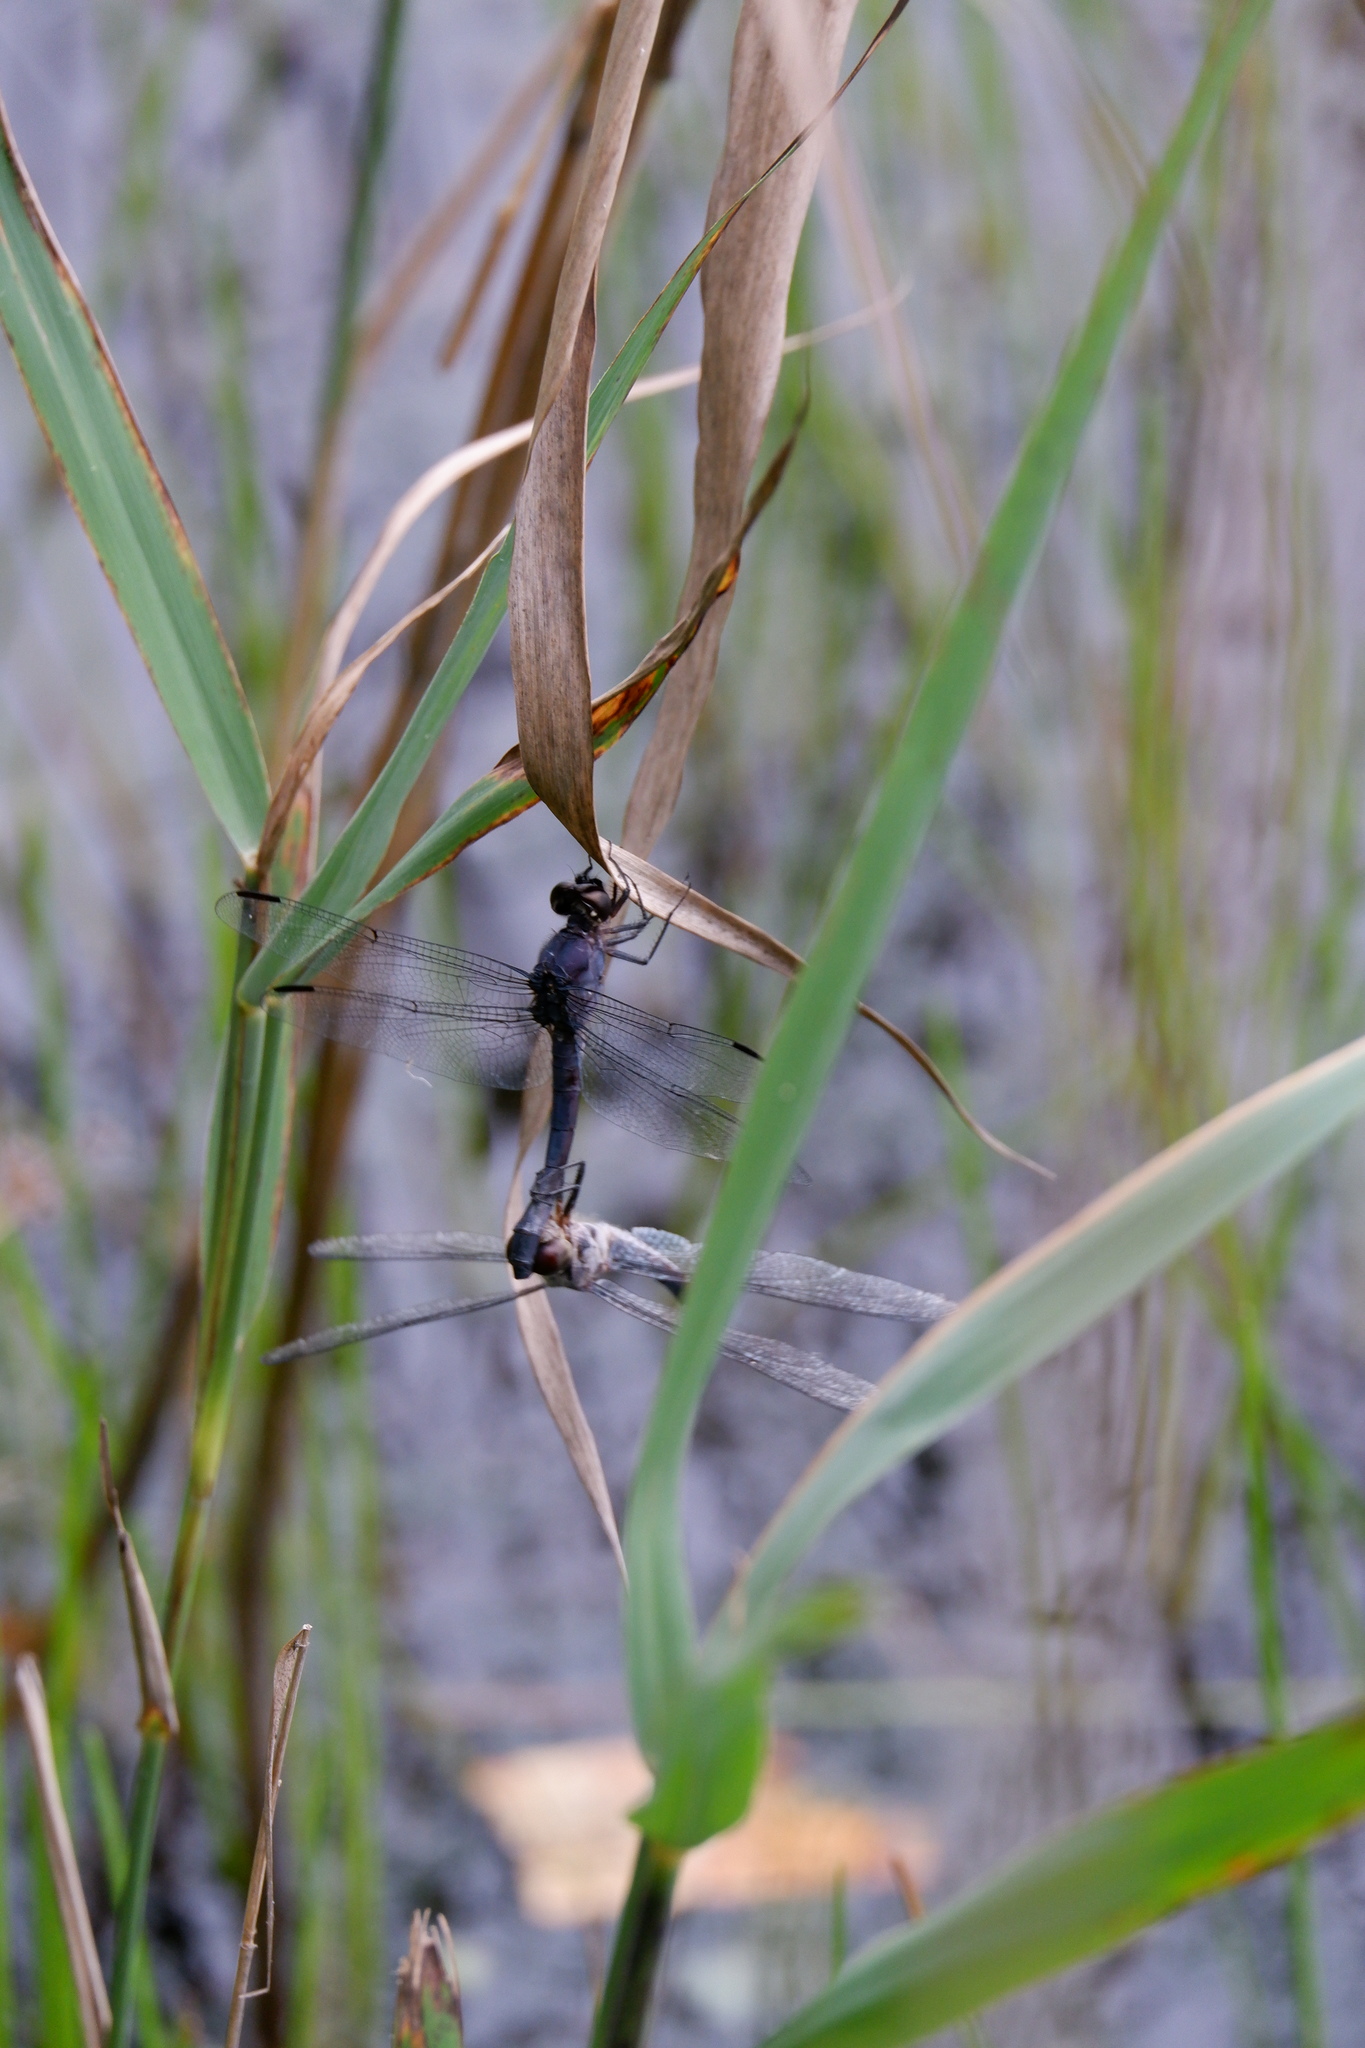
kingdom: Animalia
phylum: Arthropoda
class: Insecta
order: Odonata
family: Libellulidae
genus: Libellula
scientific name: Libellula incesta
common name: Slaty skimmer
